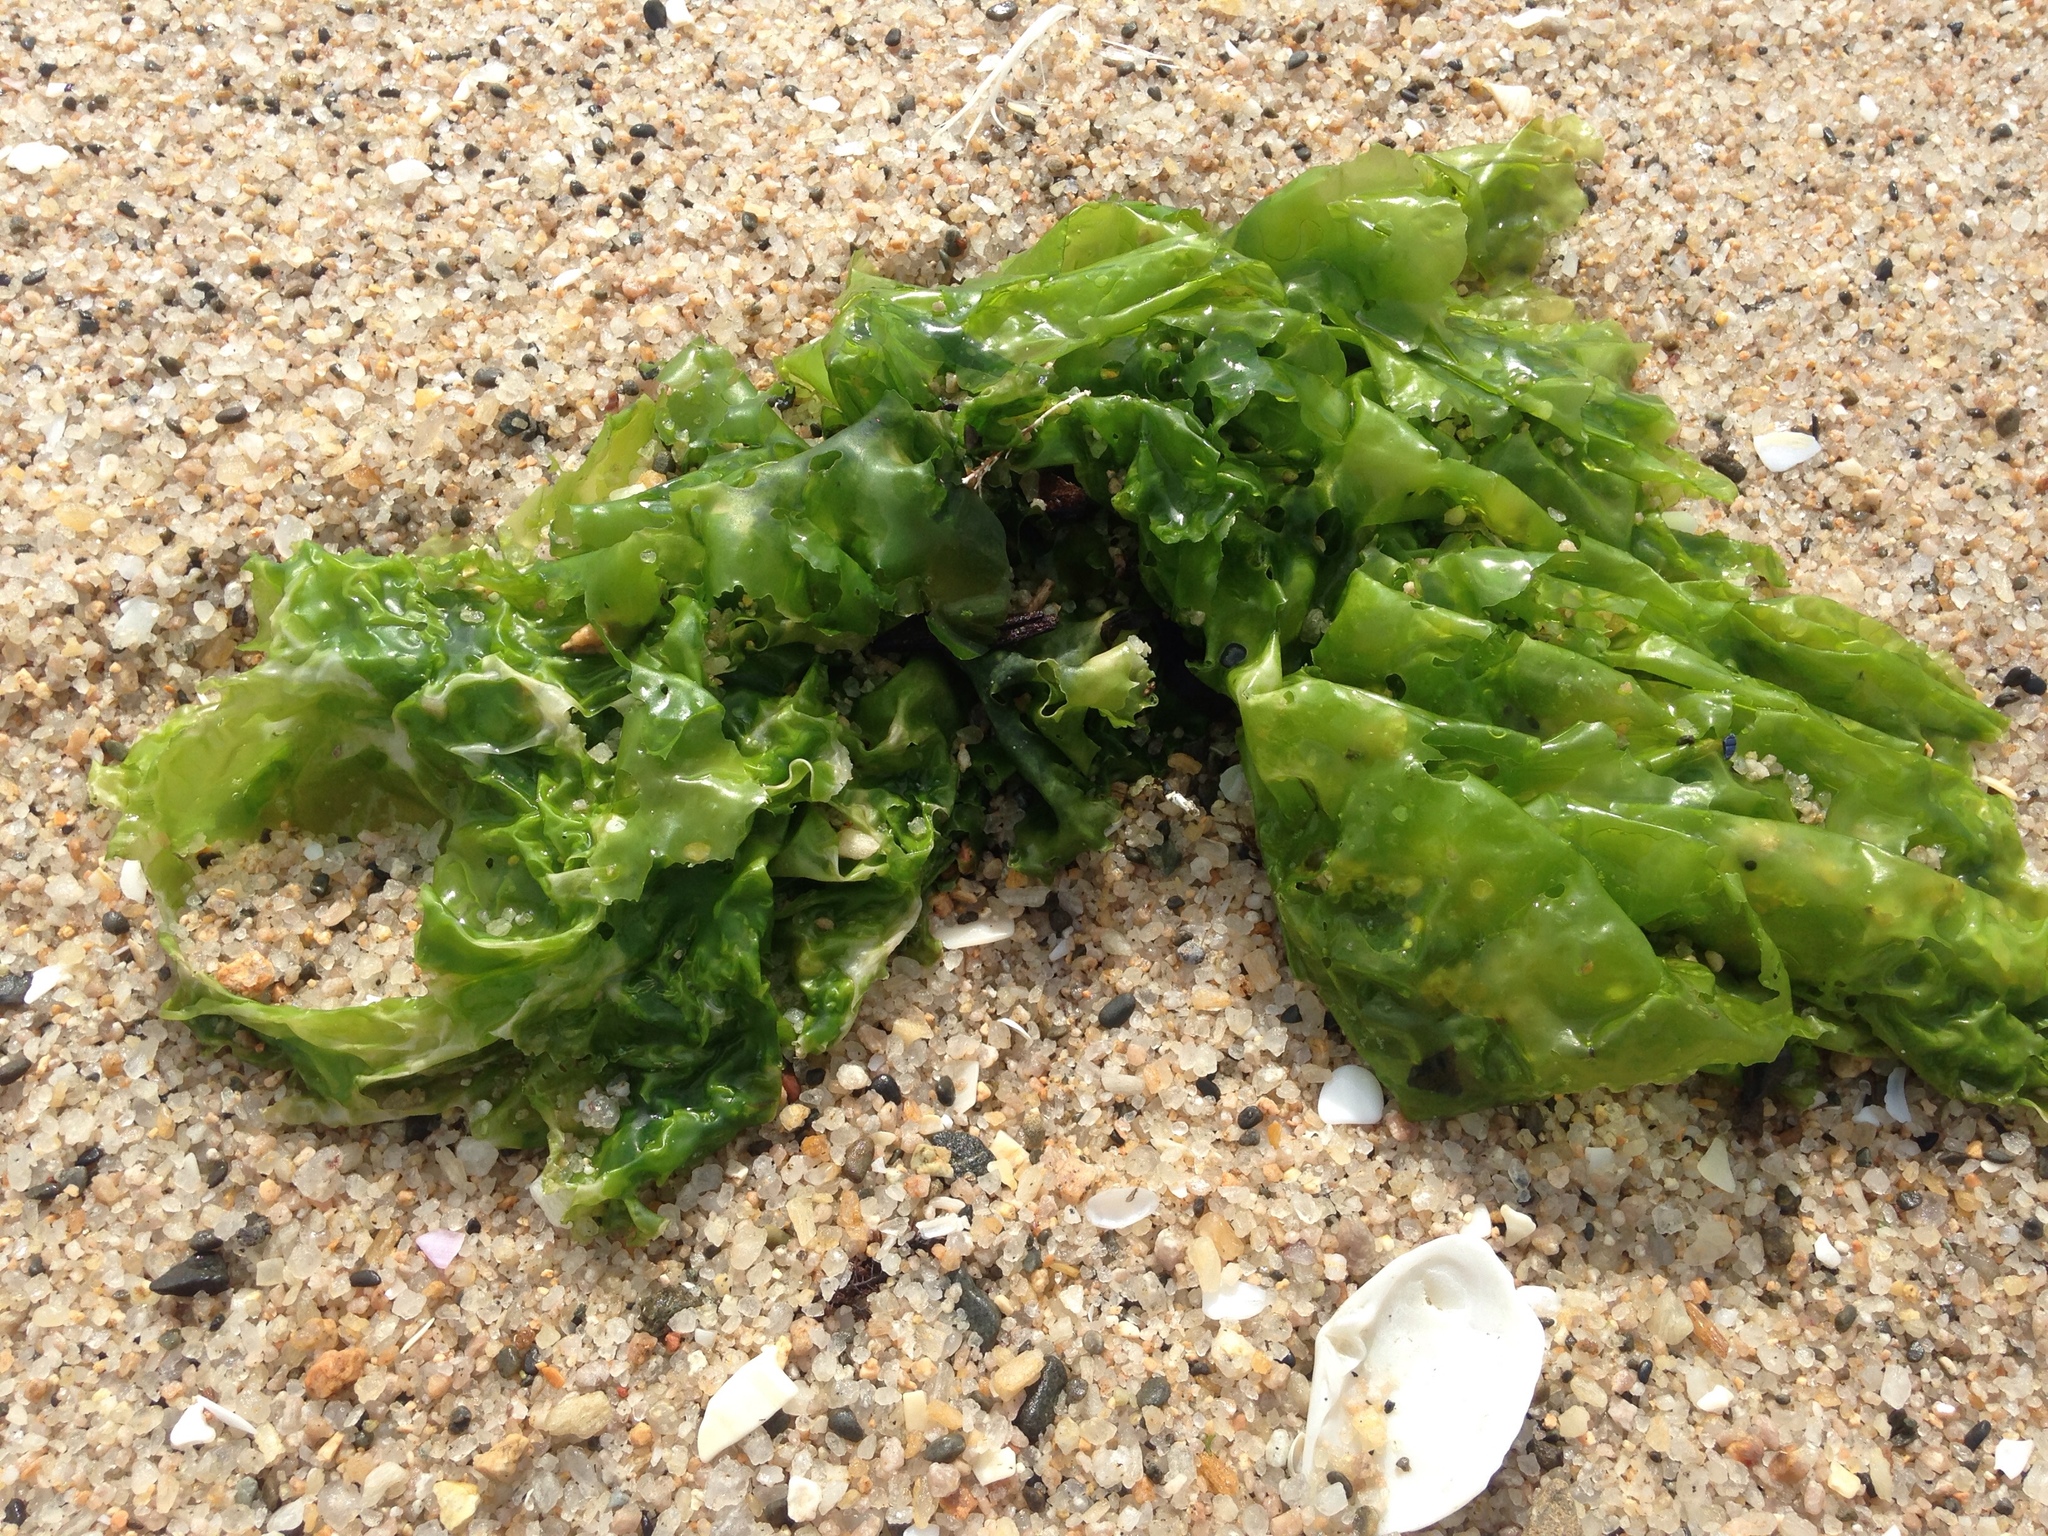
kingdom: Plantae
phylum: Chlorophyta
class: Ulvophyceae
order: Ulvales
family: Ulvaceae
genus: Ulva
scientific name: Ulva
